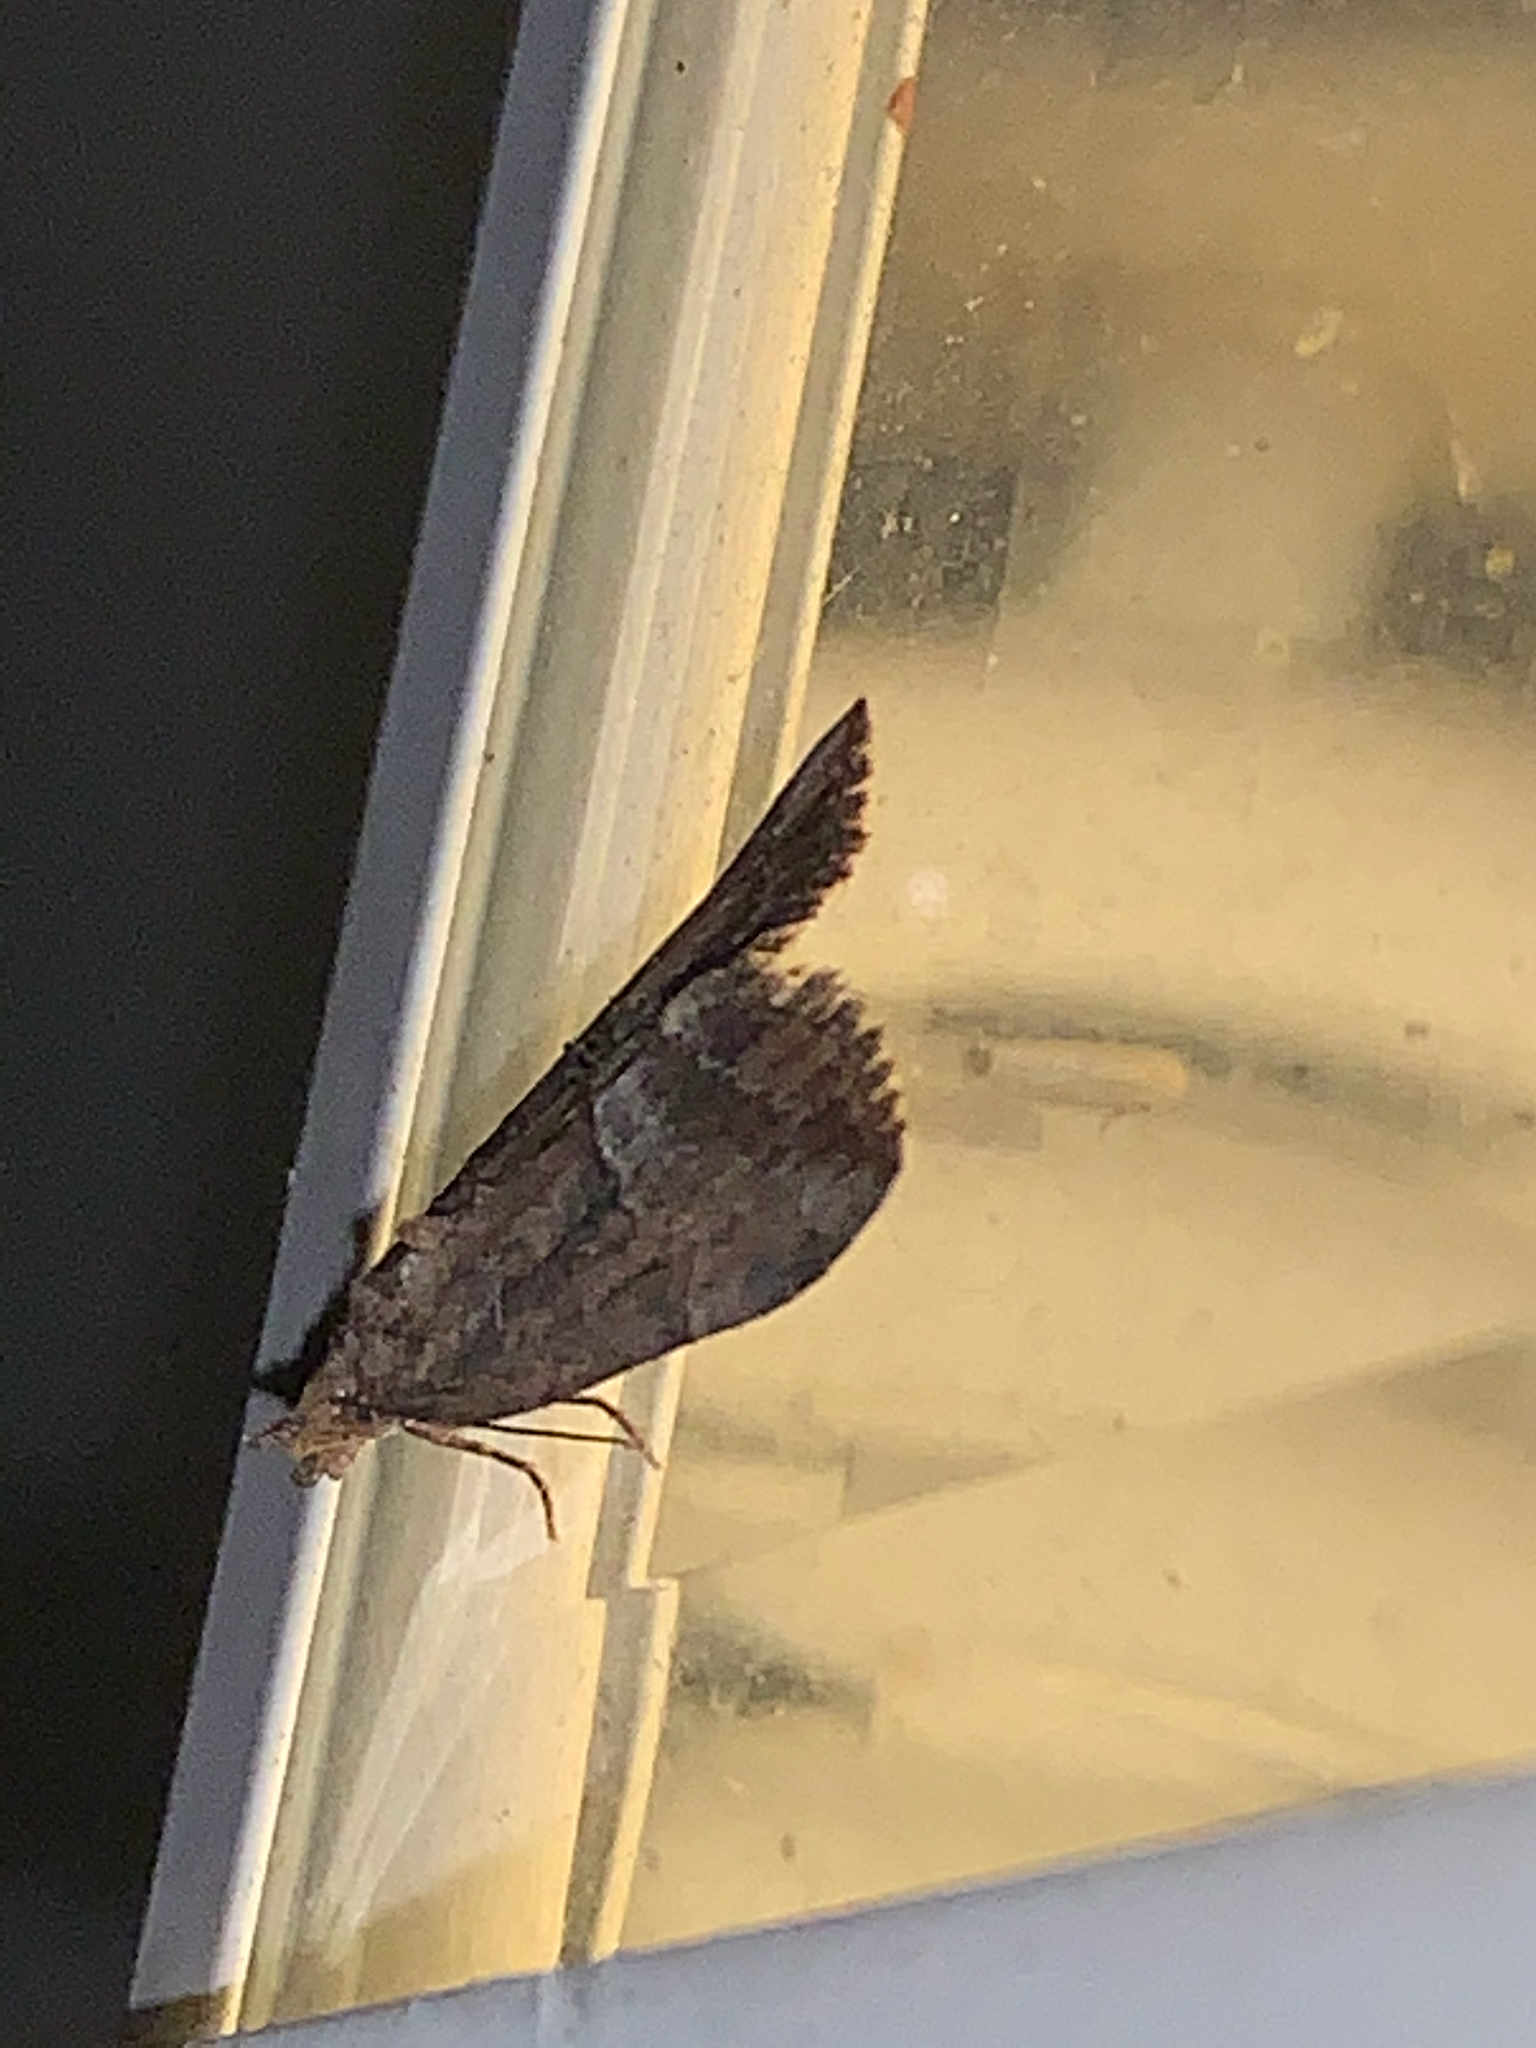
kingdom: Animalia
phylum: Arthropoda
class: Insecta
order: Lepidoptera
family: Erebidae
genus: Hypena
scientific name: Hypena scabra
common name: Green cloverworm
